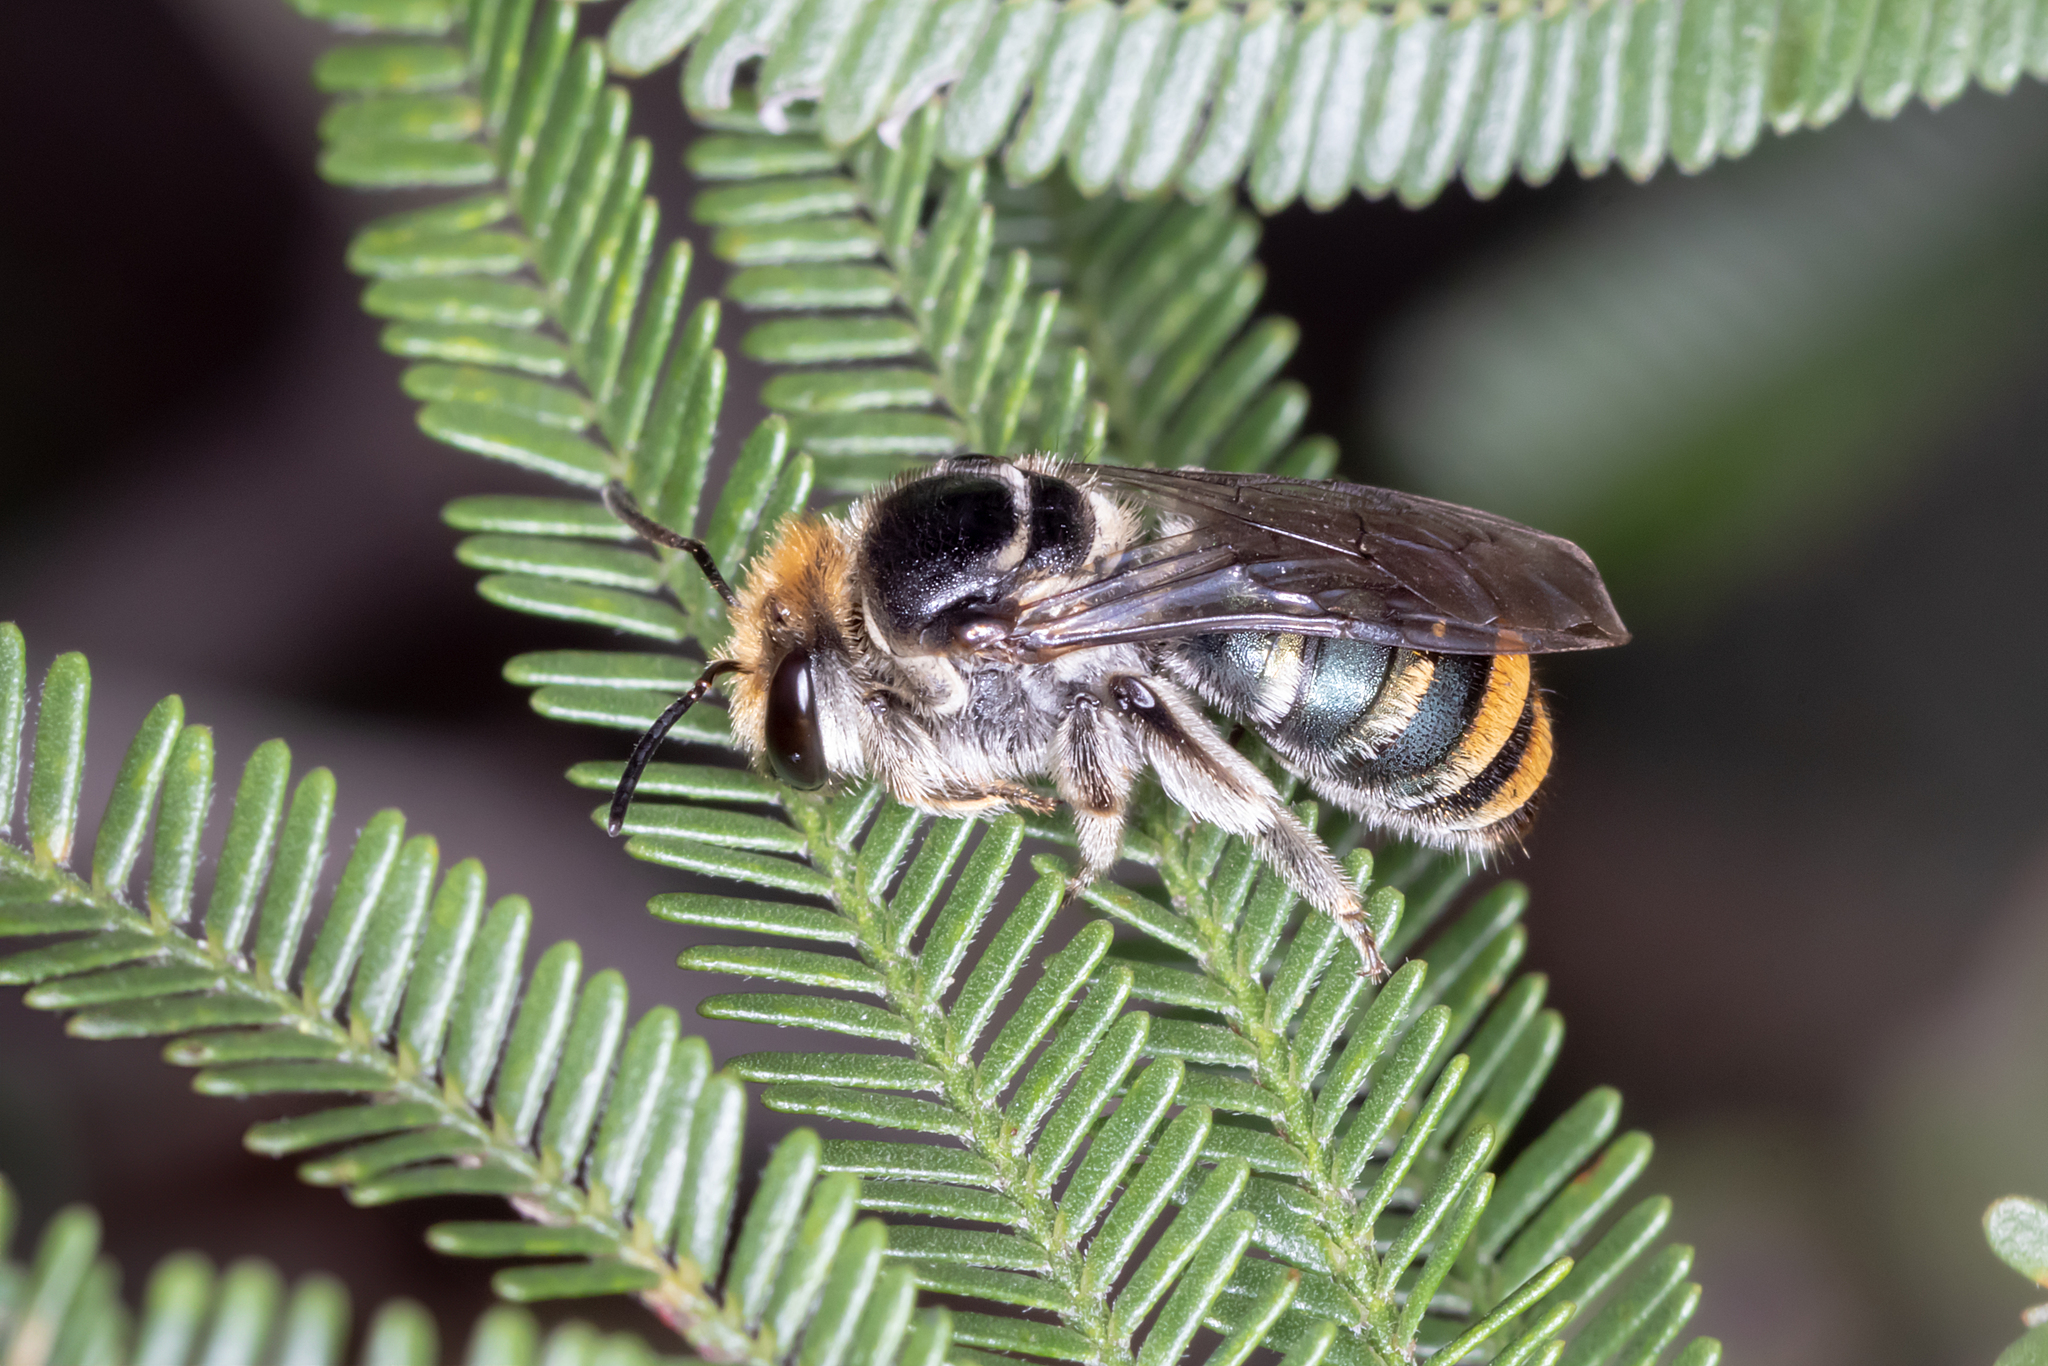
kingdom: Animalia
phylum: Arthropoda
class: Insecta
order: Hymenoptera
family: Halictidae
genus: Lipotriches
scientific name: Lipotriches australica
